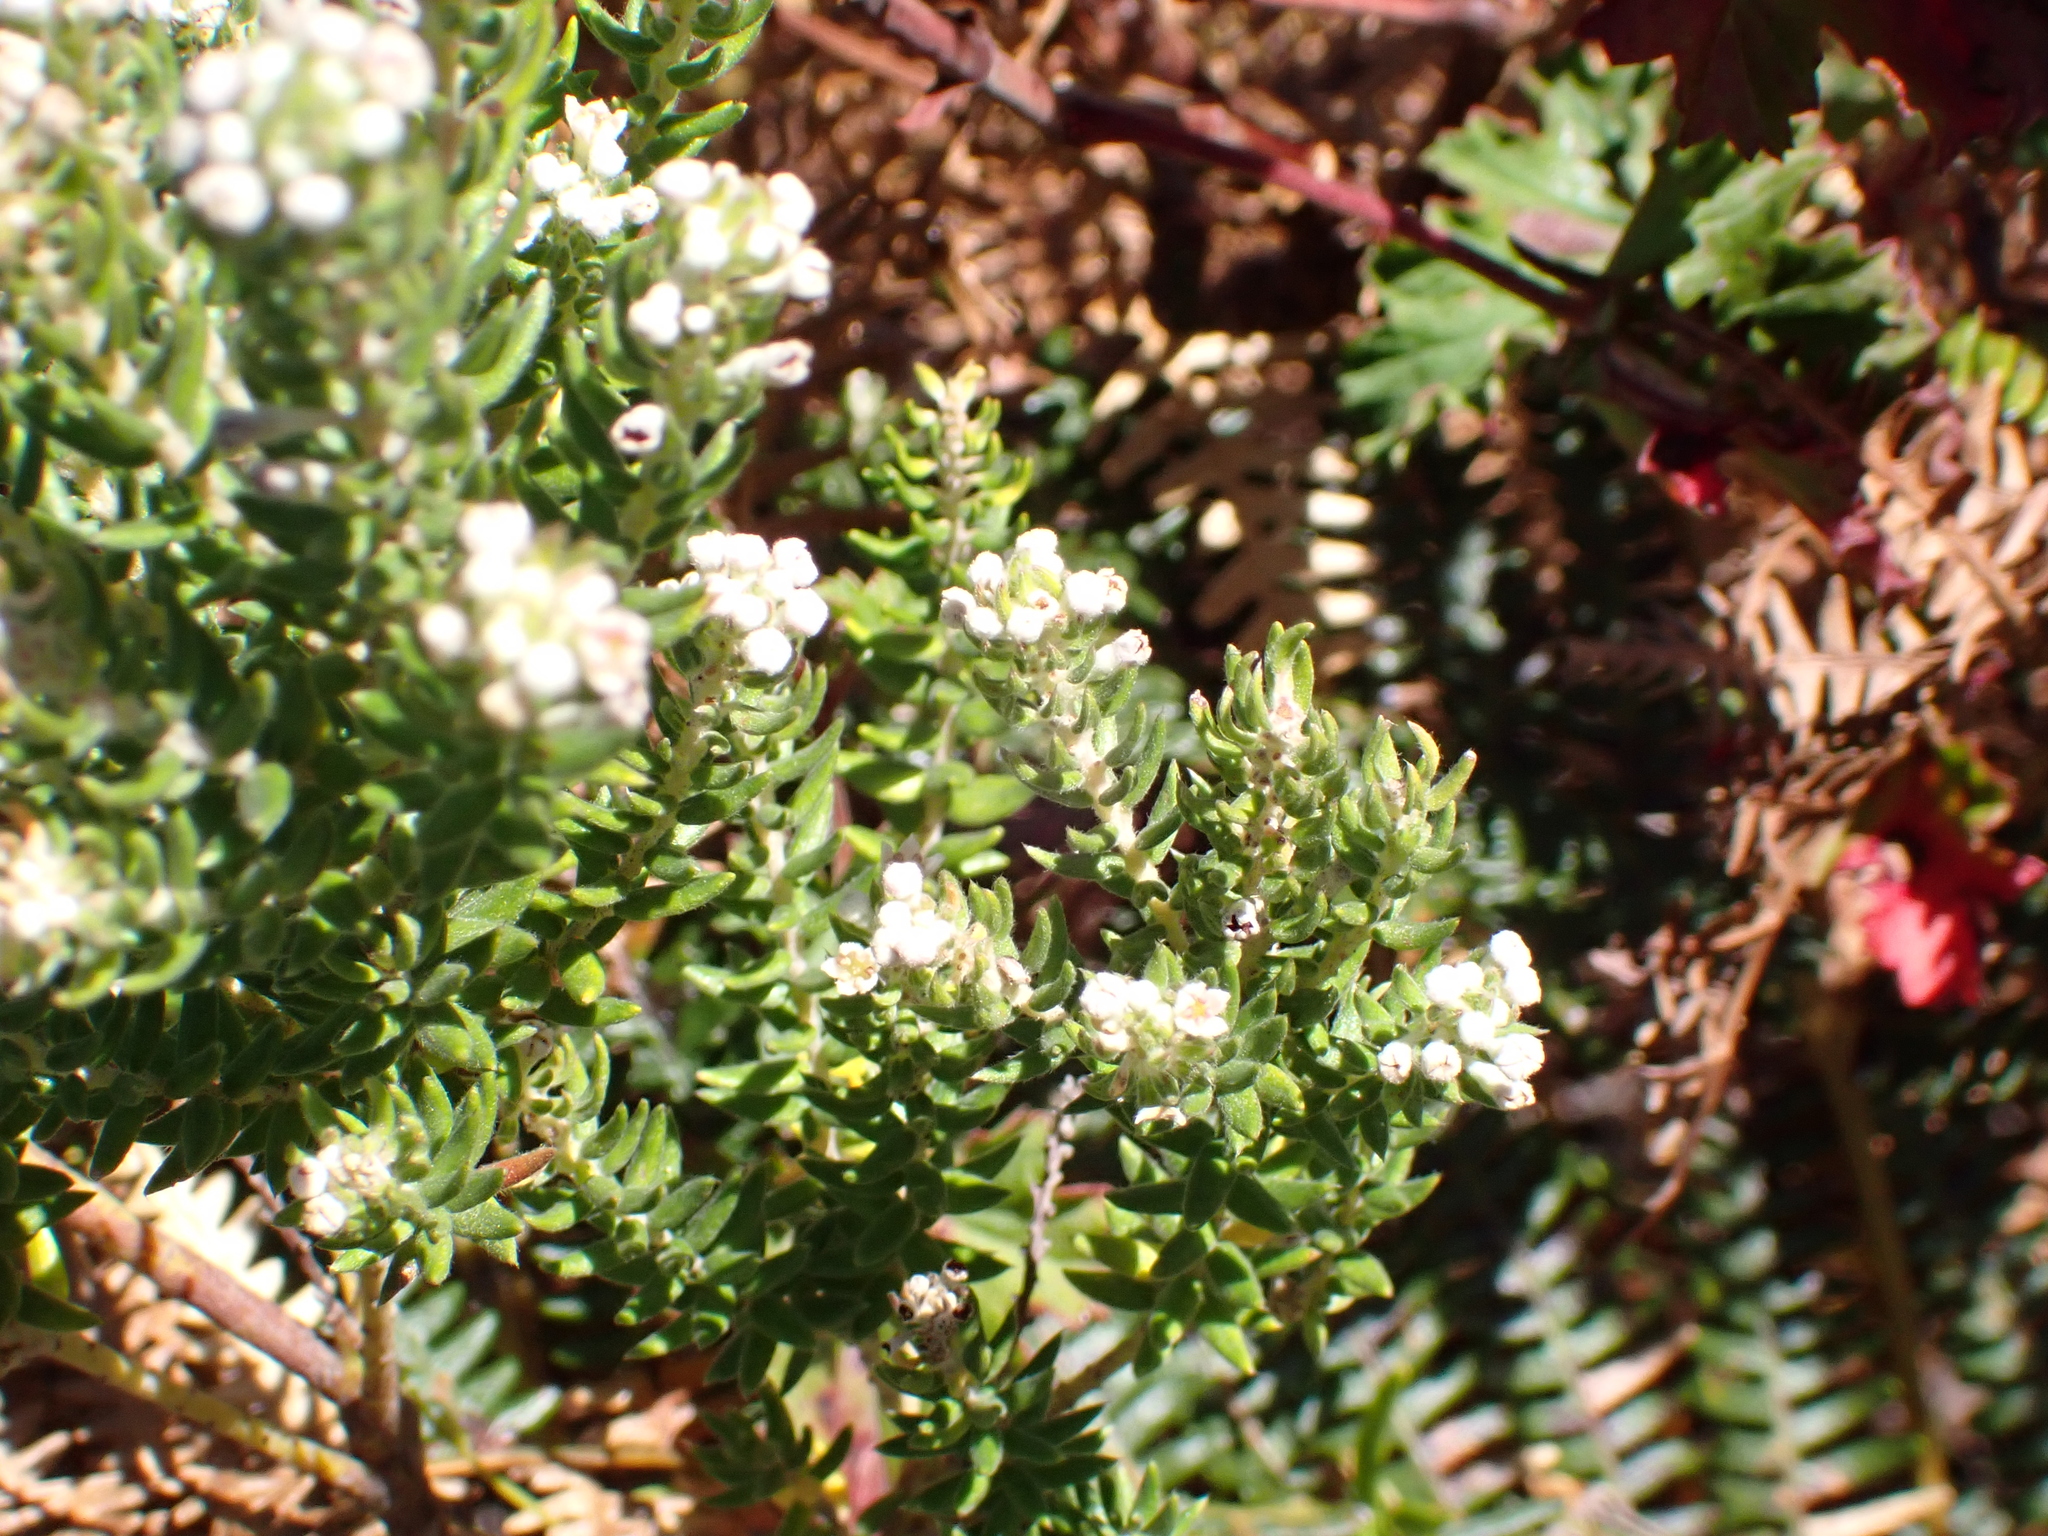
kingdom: Plantae
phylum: Tracheophyta
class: Magnoliopsida
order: Rosales
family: Rhamnaceae
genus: Phylica
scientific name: Phylica purpurea
